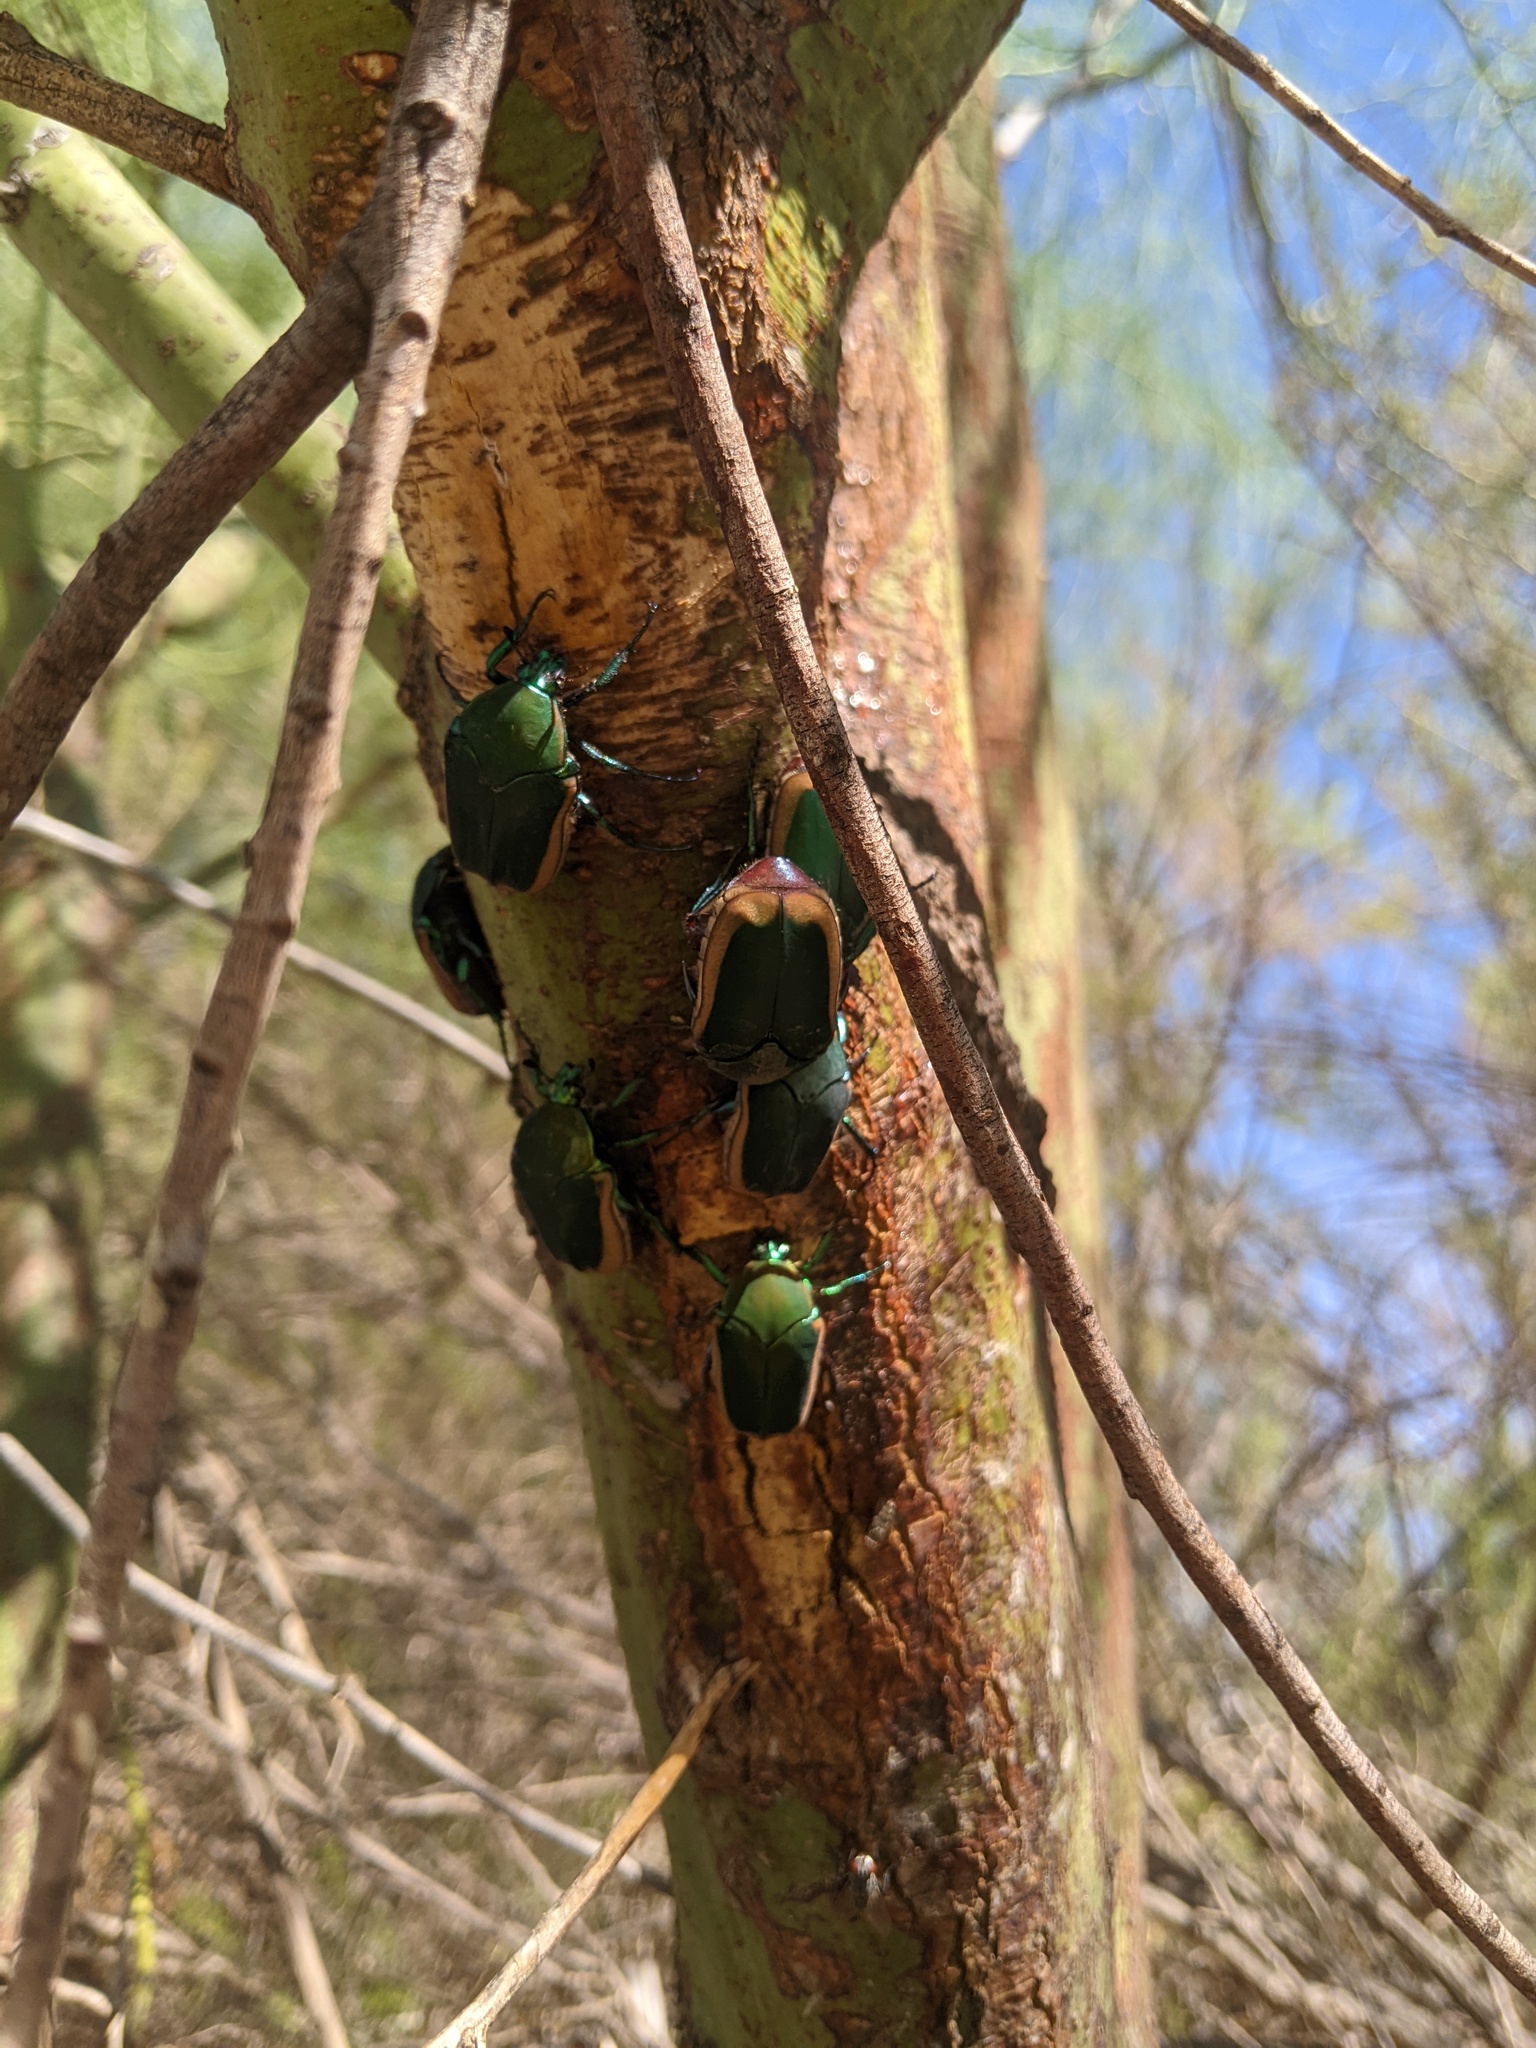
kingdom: Animalia
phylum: Arthropoda
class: Insecta
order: Coleoptera
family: Scarabaeidae
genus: Cotinis
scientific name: Cotinis mutabilis
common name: Figeater beetle
